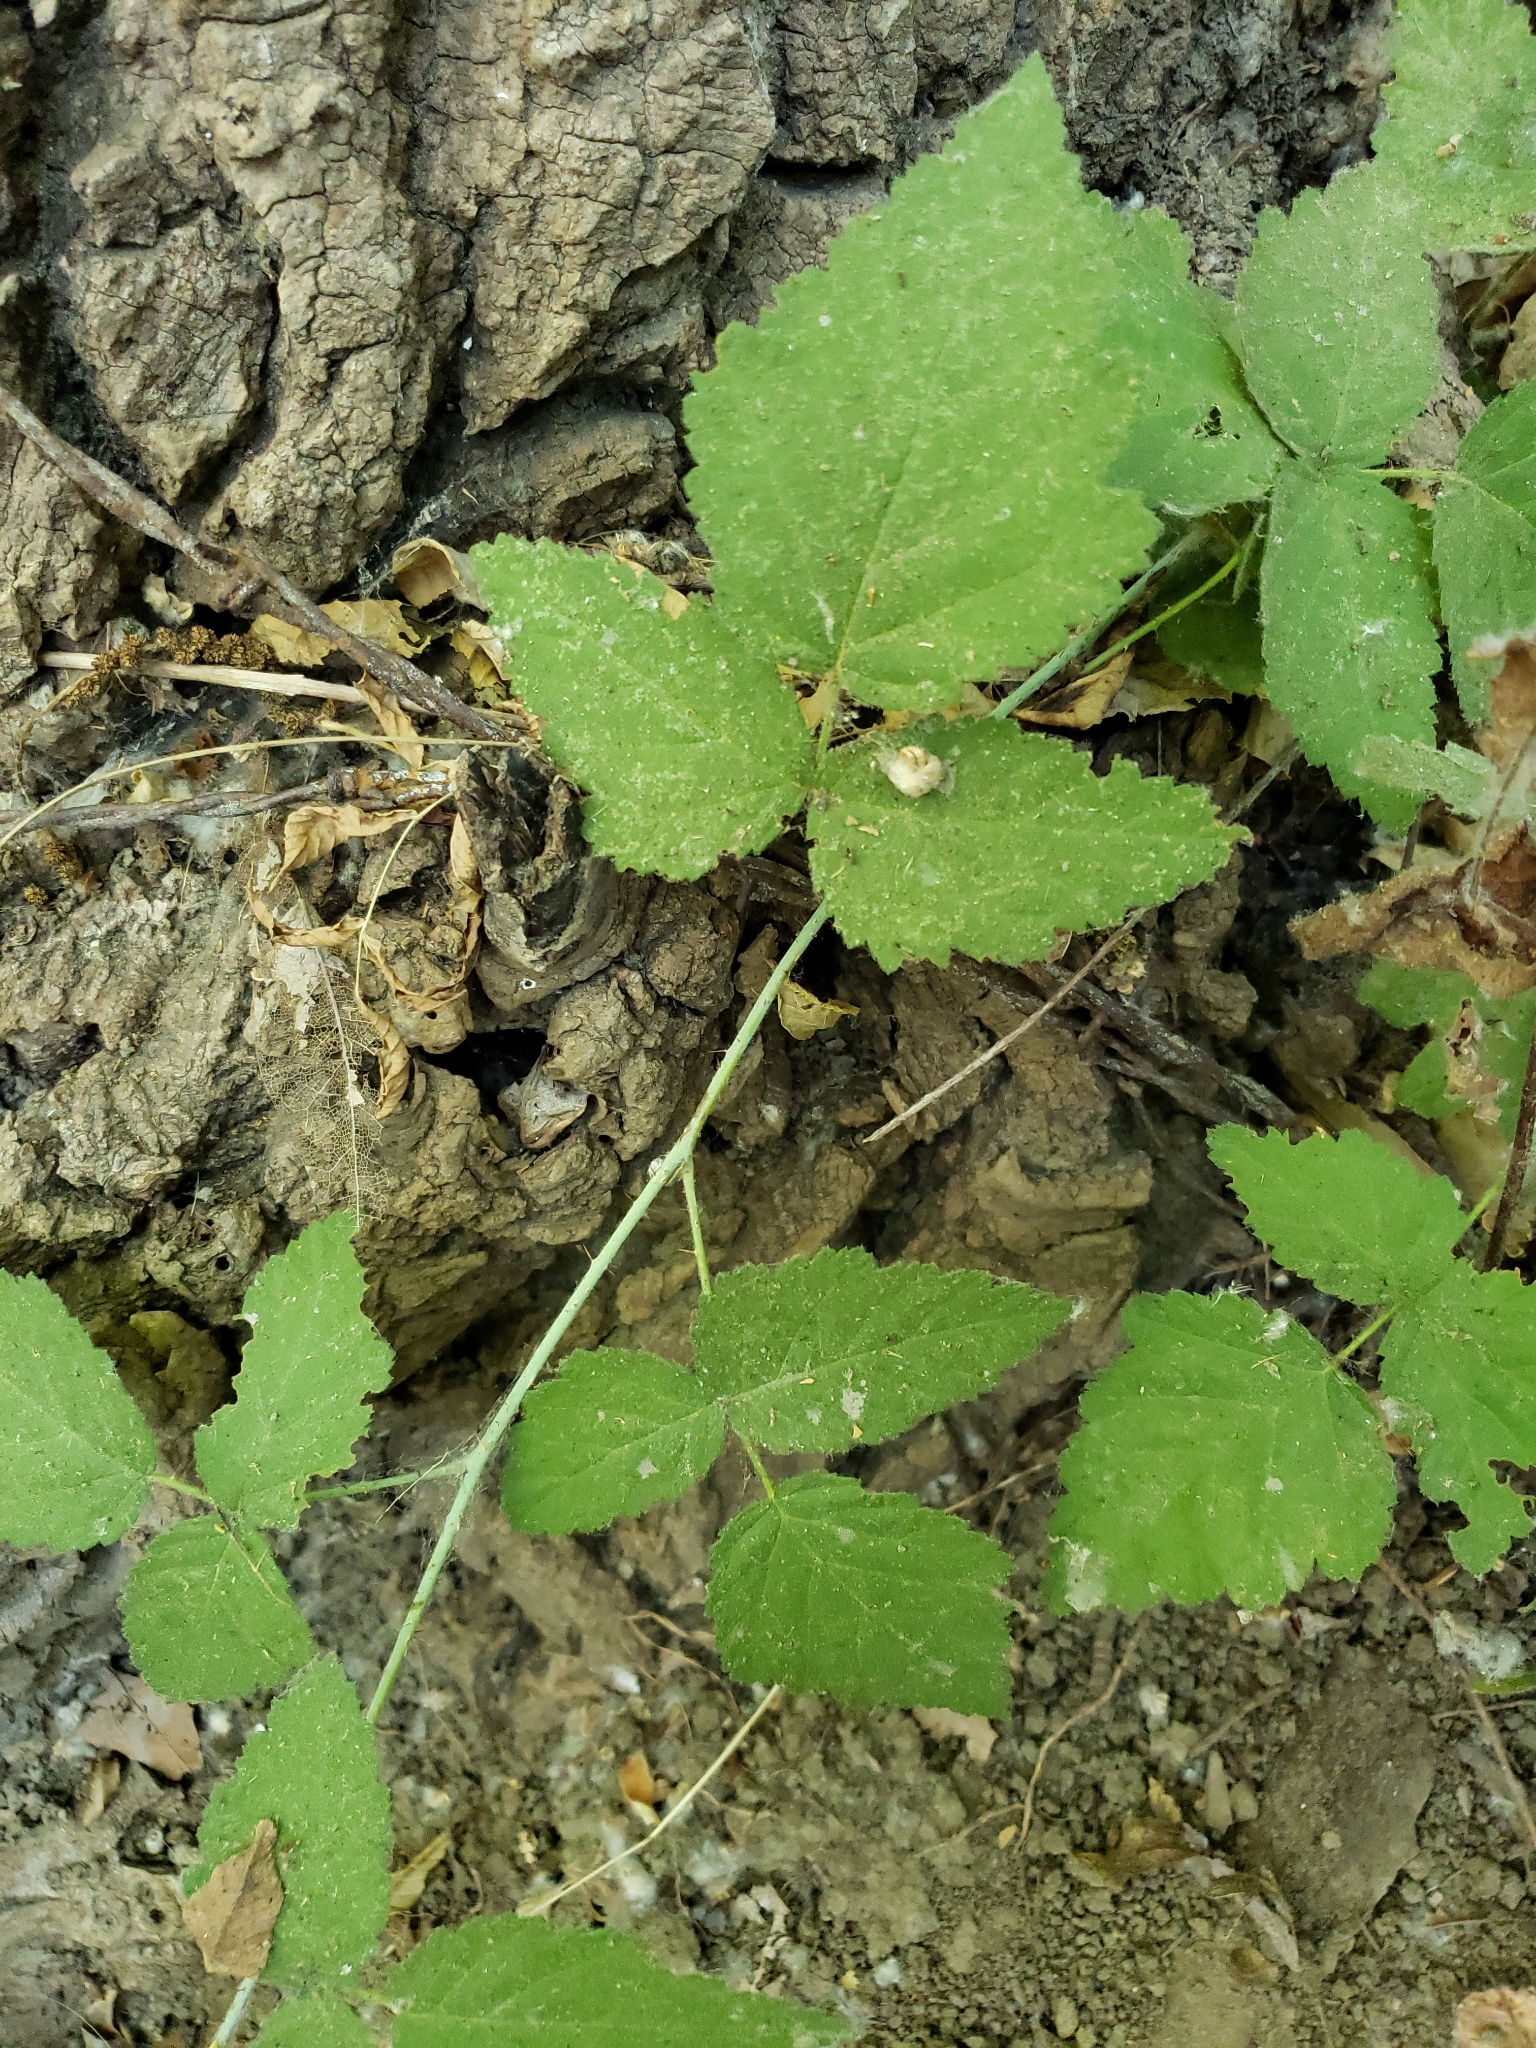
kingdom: Plantae
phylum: Tracheophyta
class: Magnoliopsida
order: Rosales
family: Rosaceae
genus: Rubus
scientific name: Rubus ursinus
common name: Pacific blackberry
